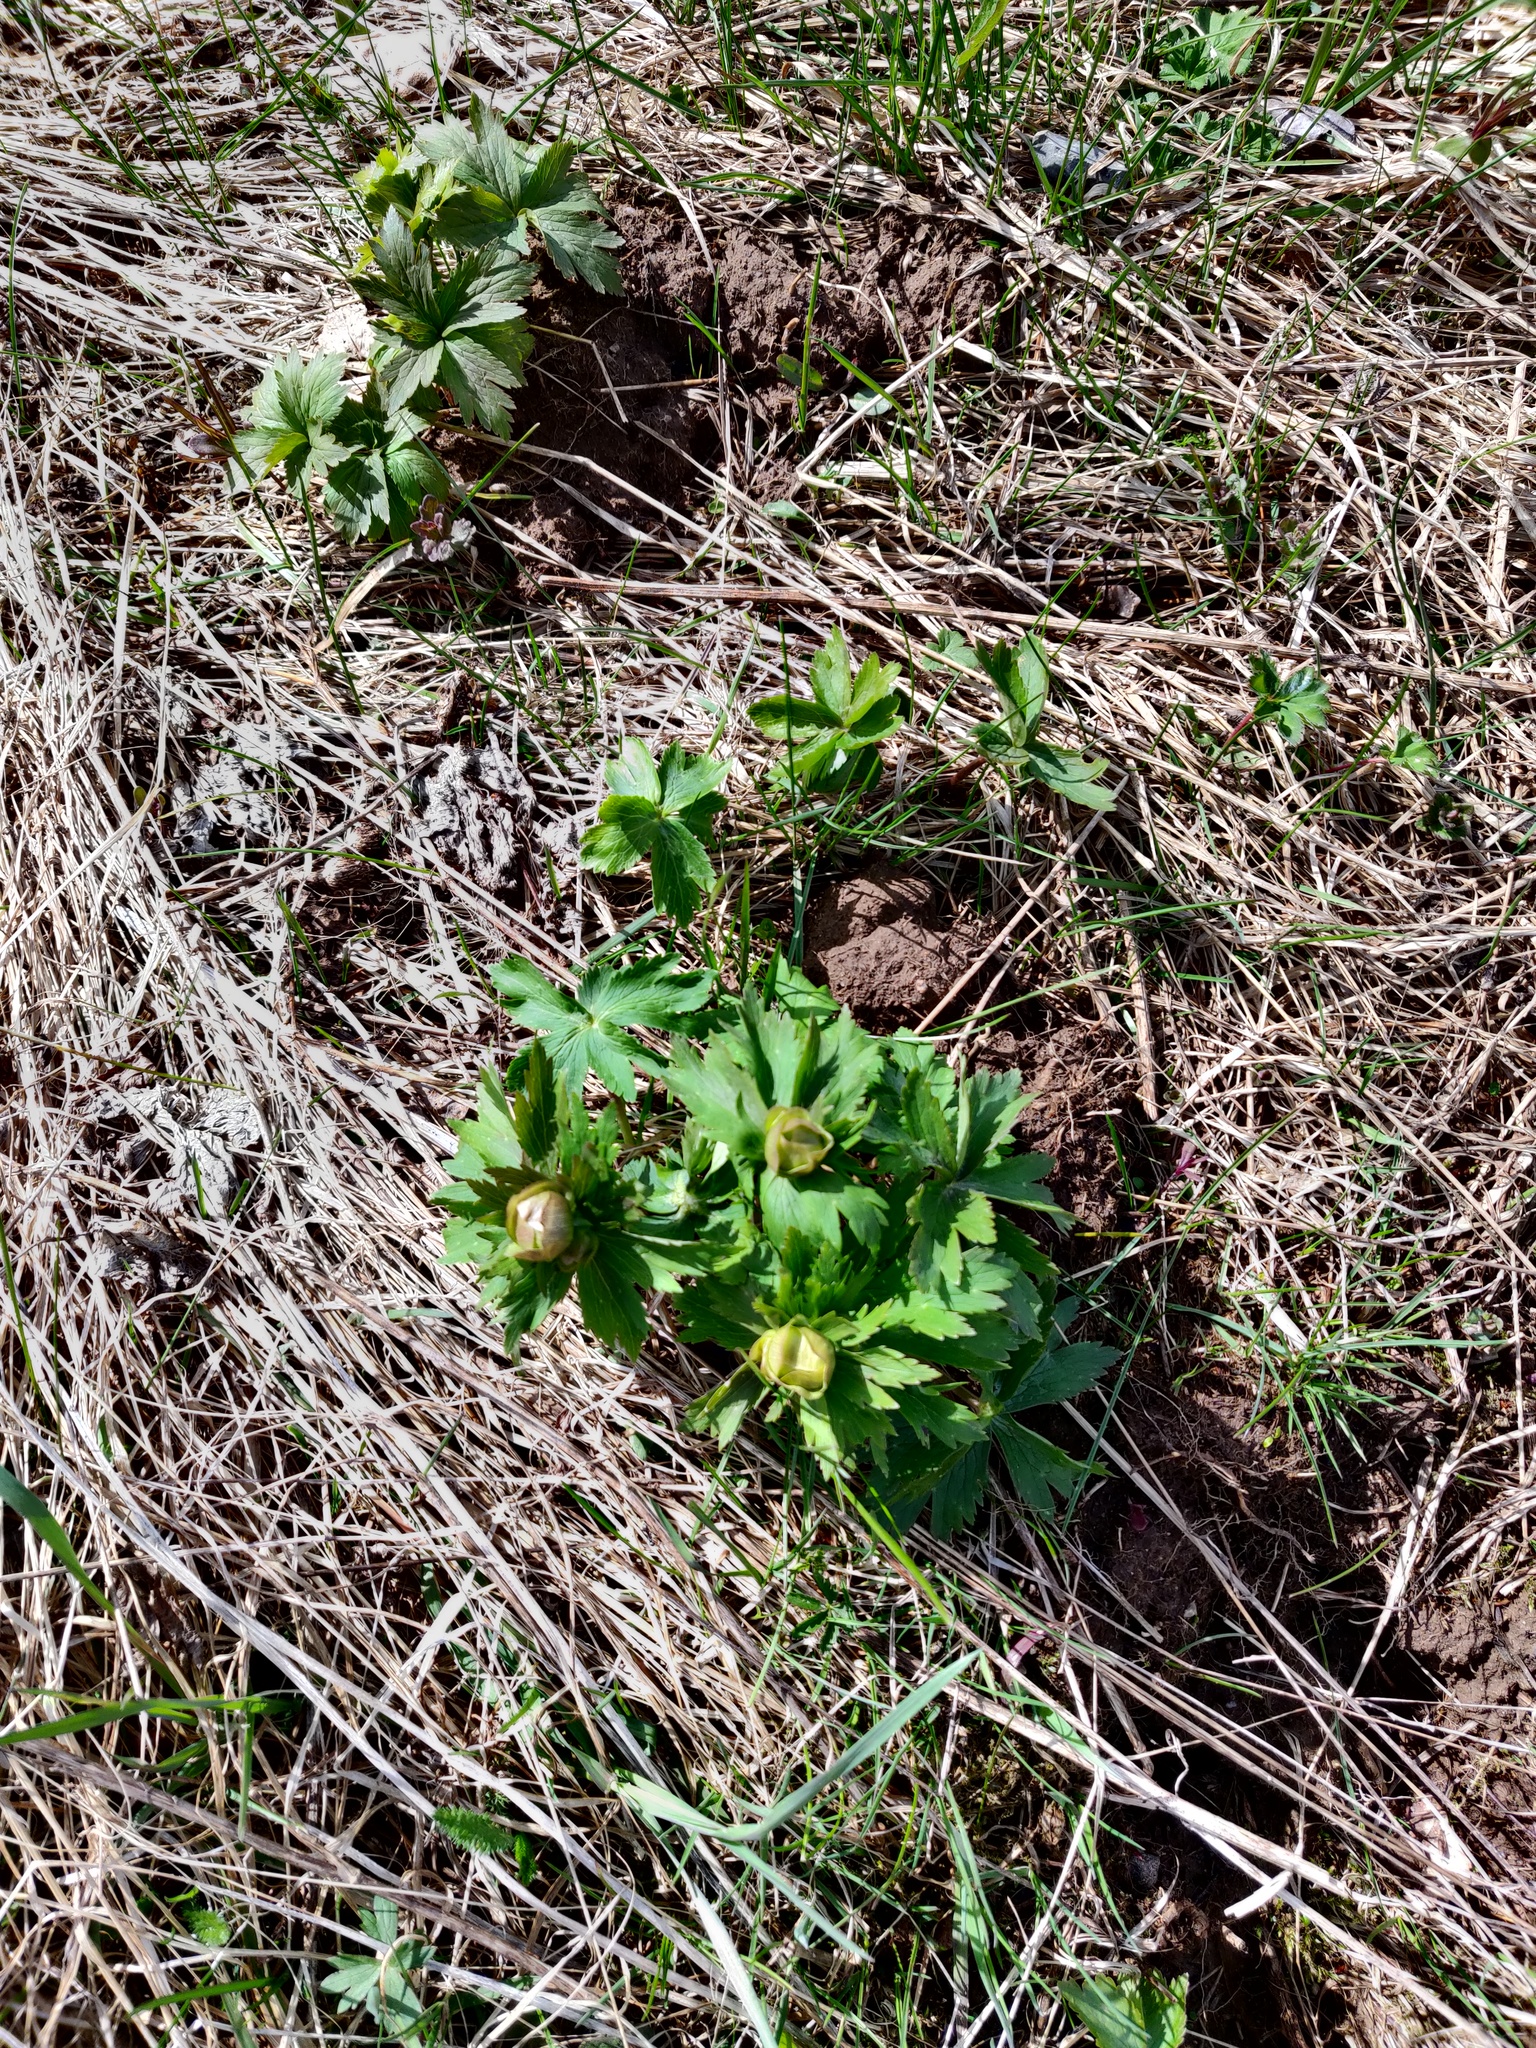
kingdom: Plantae
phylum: Tracheophyta
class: Magnoliopsida
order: Ranunculales
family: Ranunculaceae
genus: Trollius
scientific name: Trollius europaeus
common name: European globeflower
